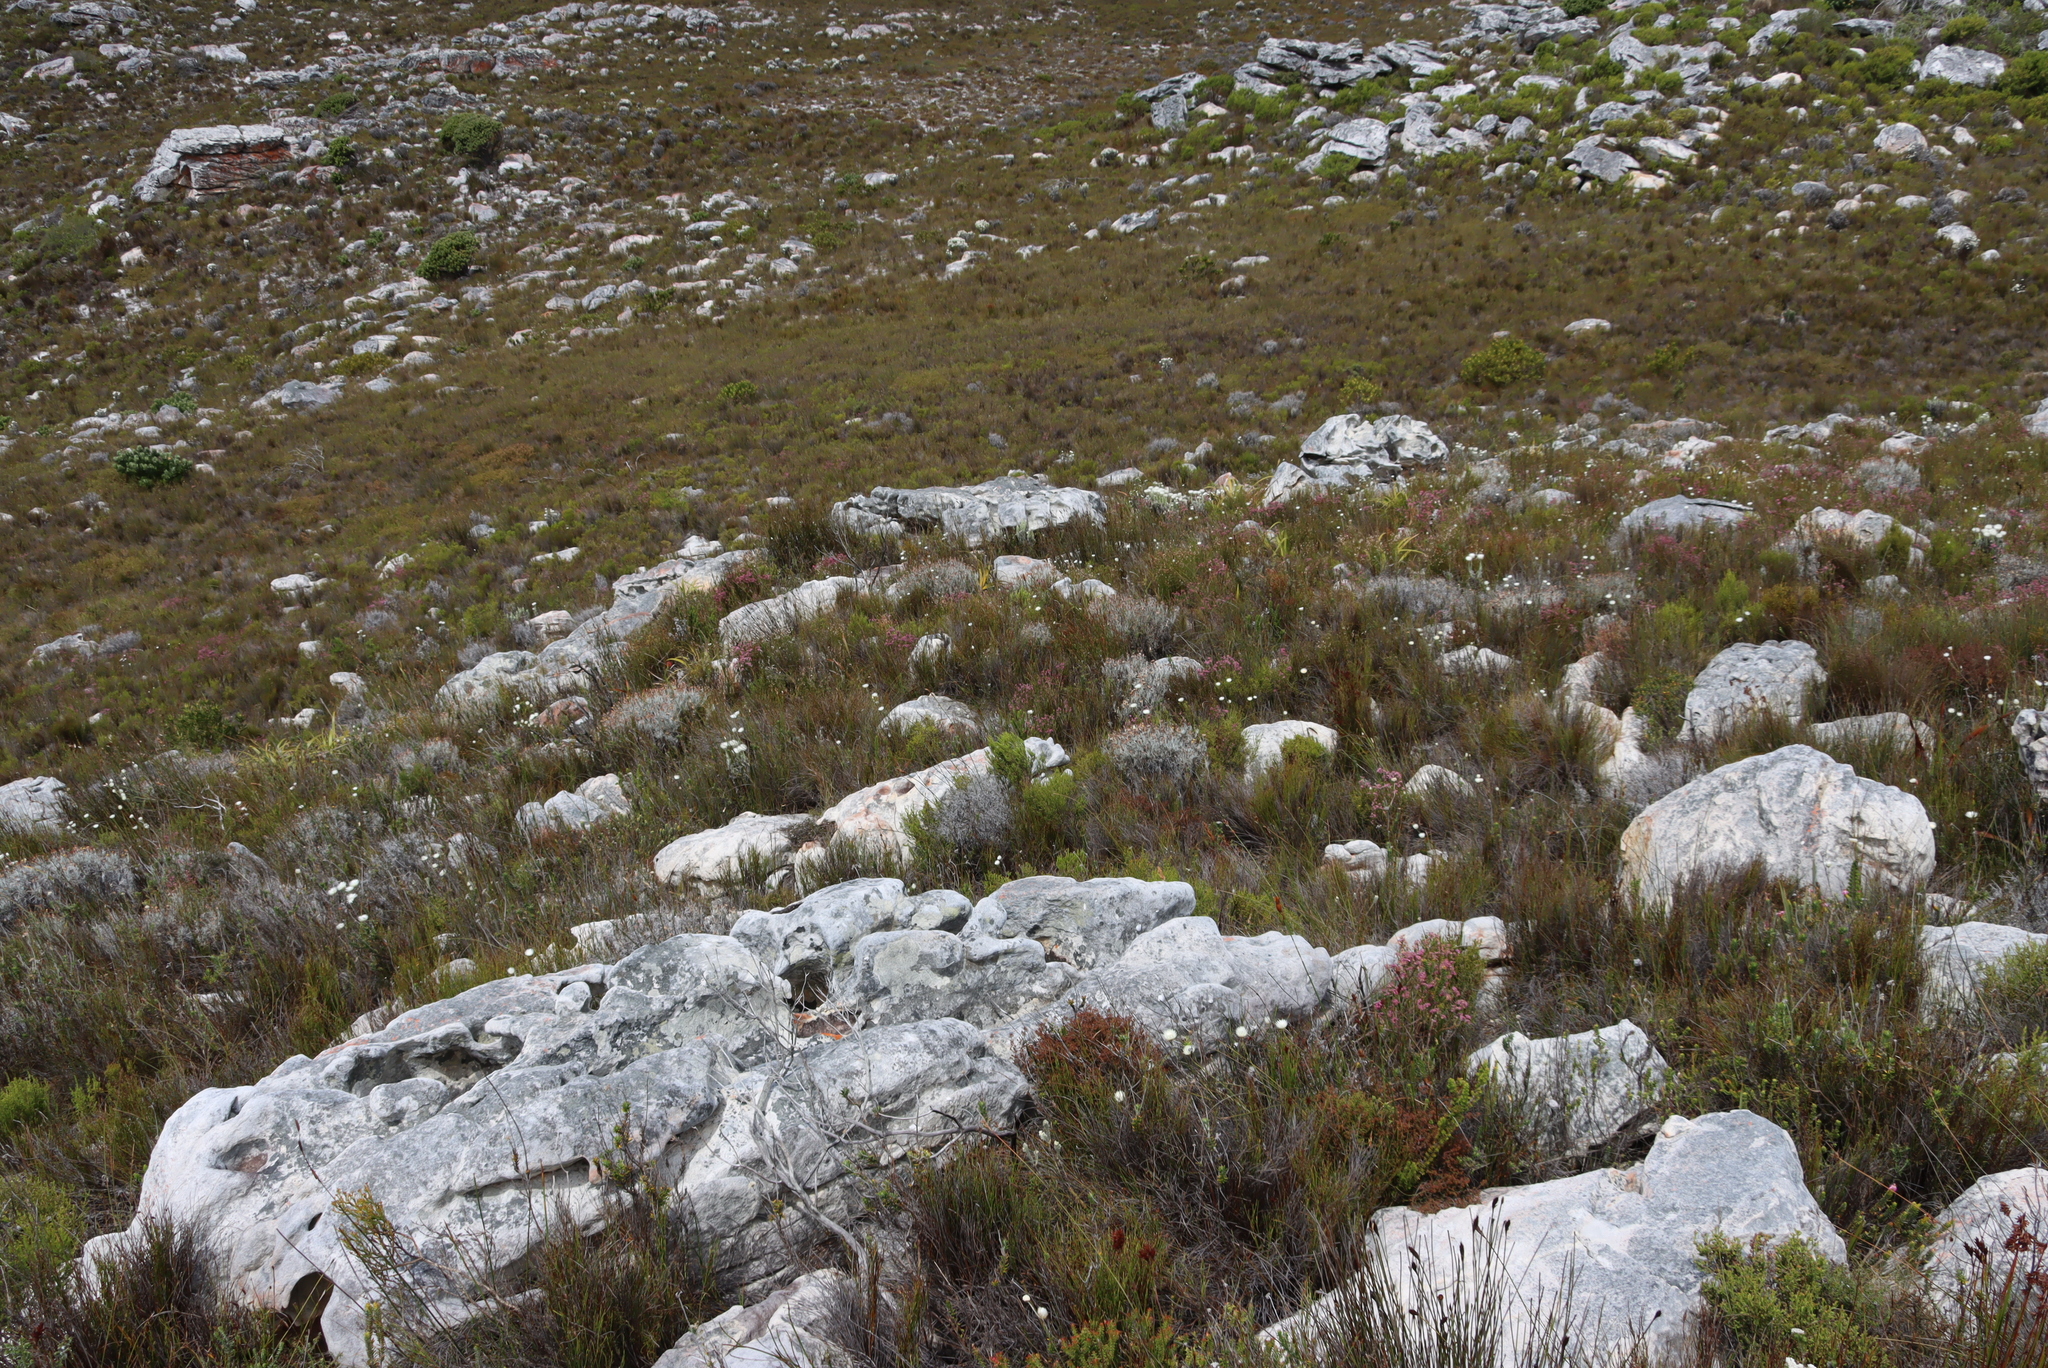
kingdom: Plantae
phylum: Tracheophyta
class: Magnoliopsida
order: Asterales
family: Asteraceae
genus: Syncarpha
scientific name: Syncarpha gnaphaloides
